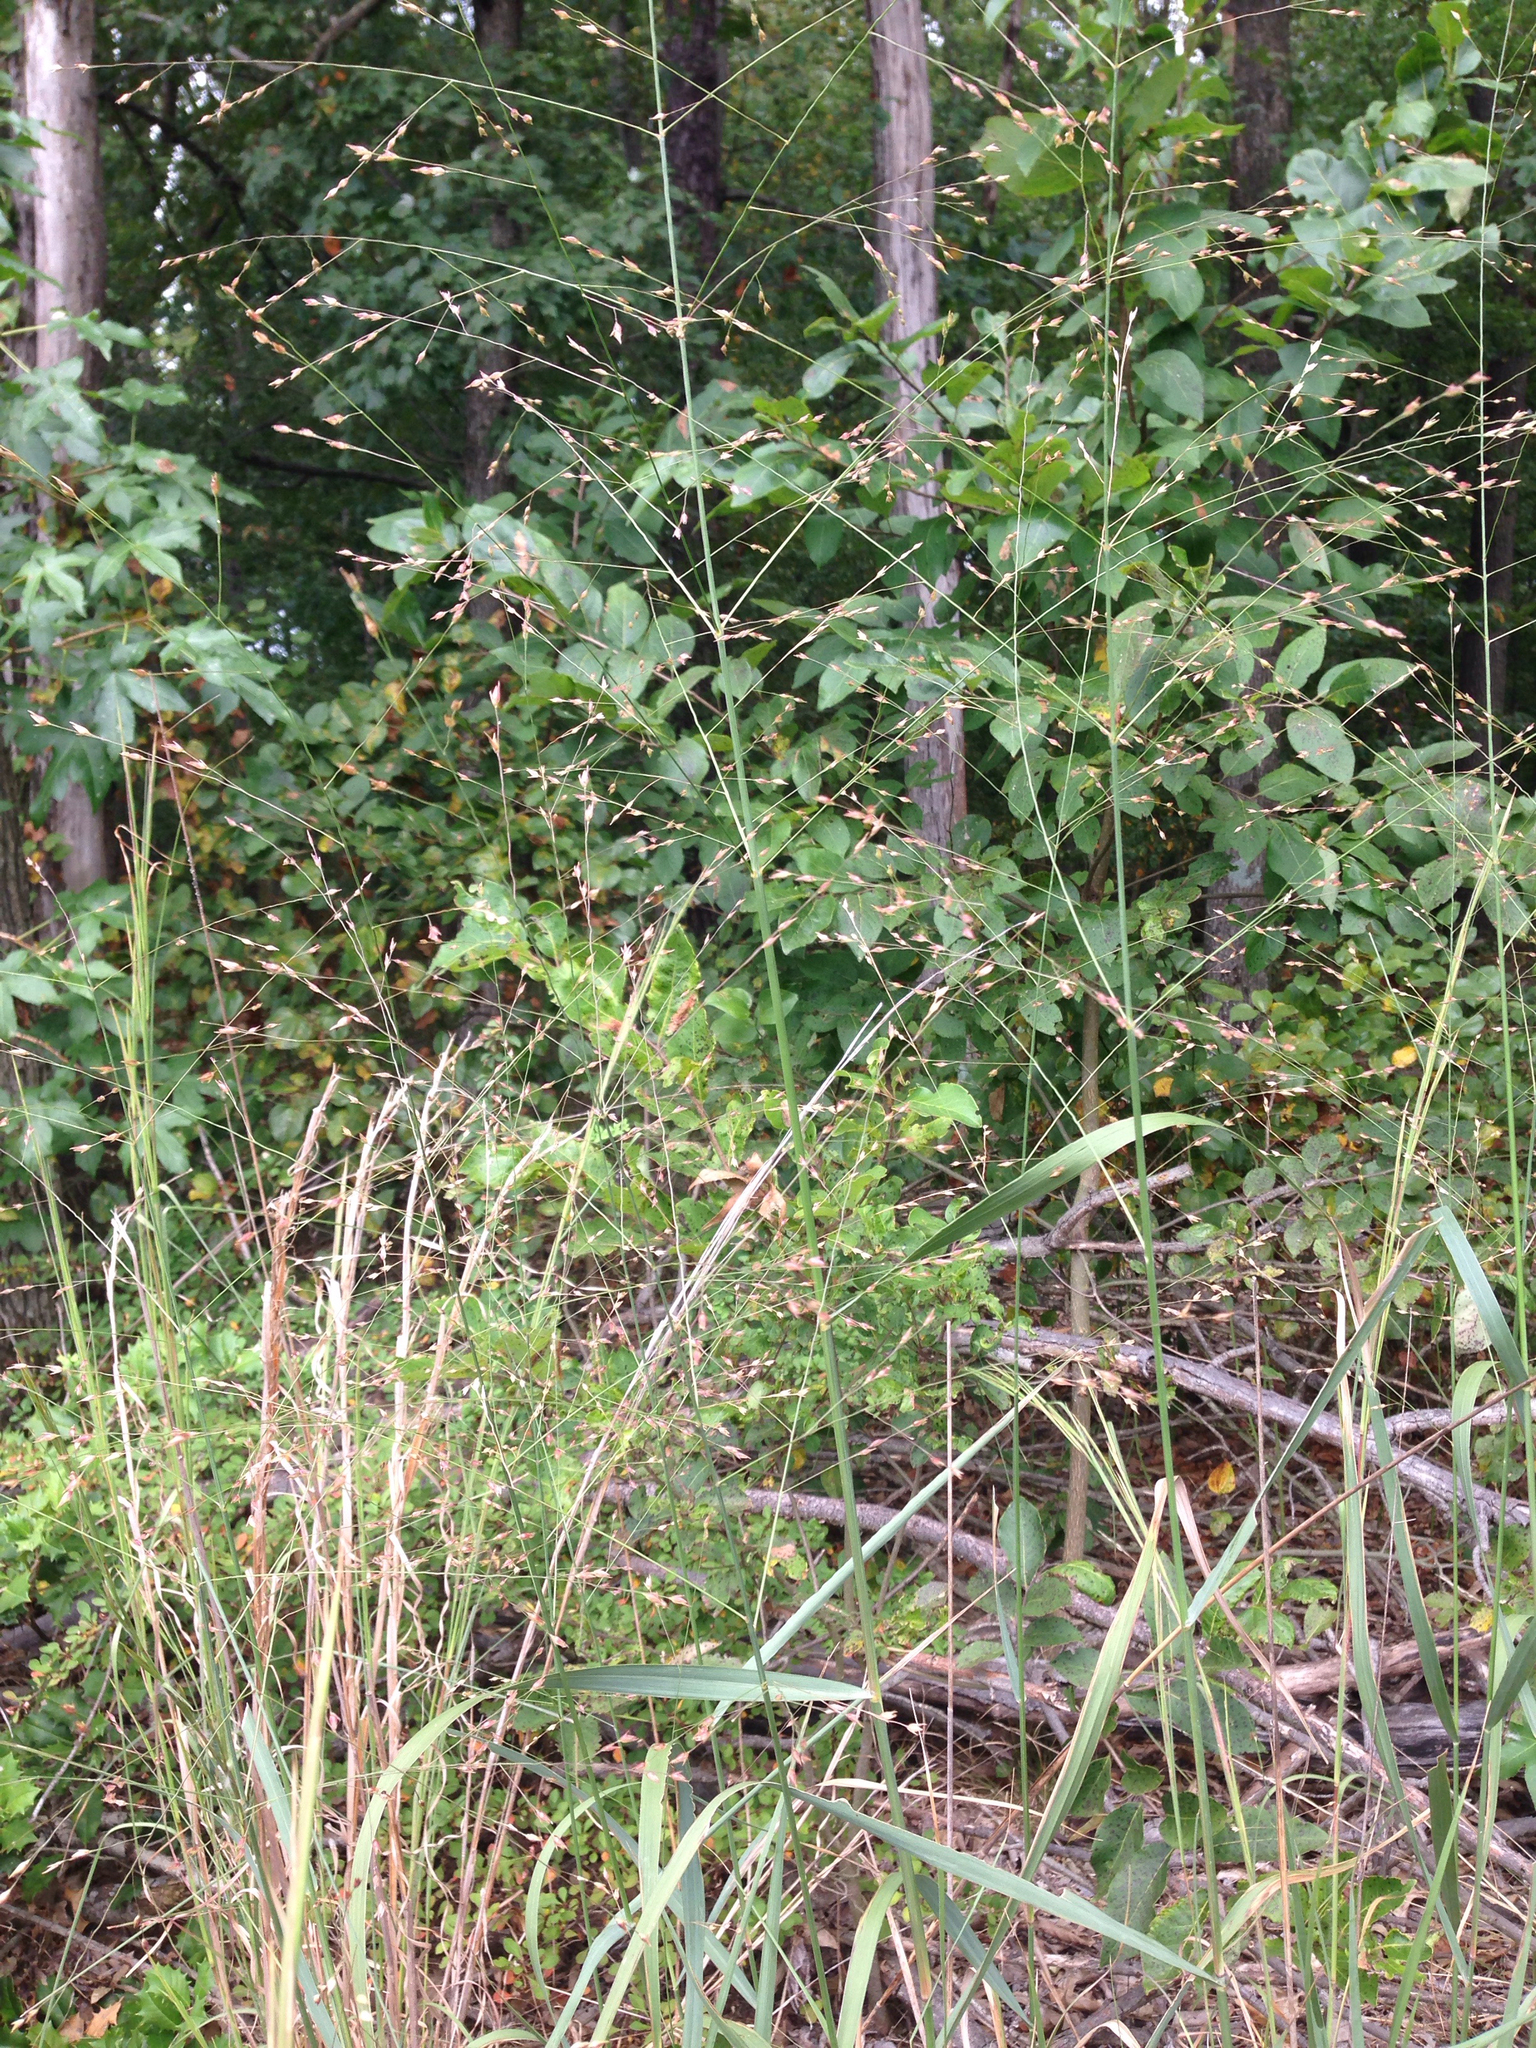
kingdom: Plantae
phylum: Tracheophyta
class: Liliopsida
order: Poales
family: Poaceae
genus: Panicum
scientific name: Panicum virgatum
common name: Switchgrass
